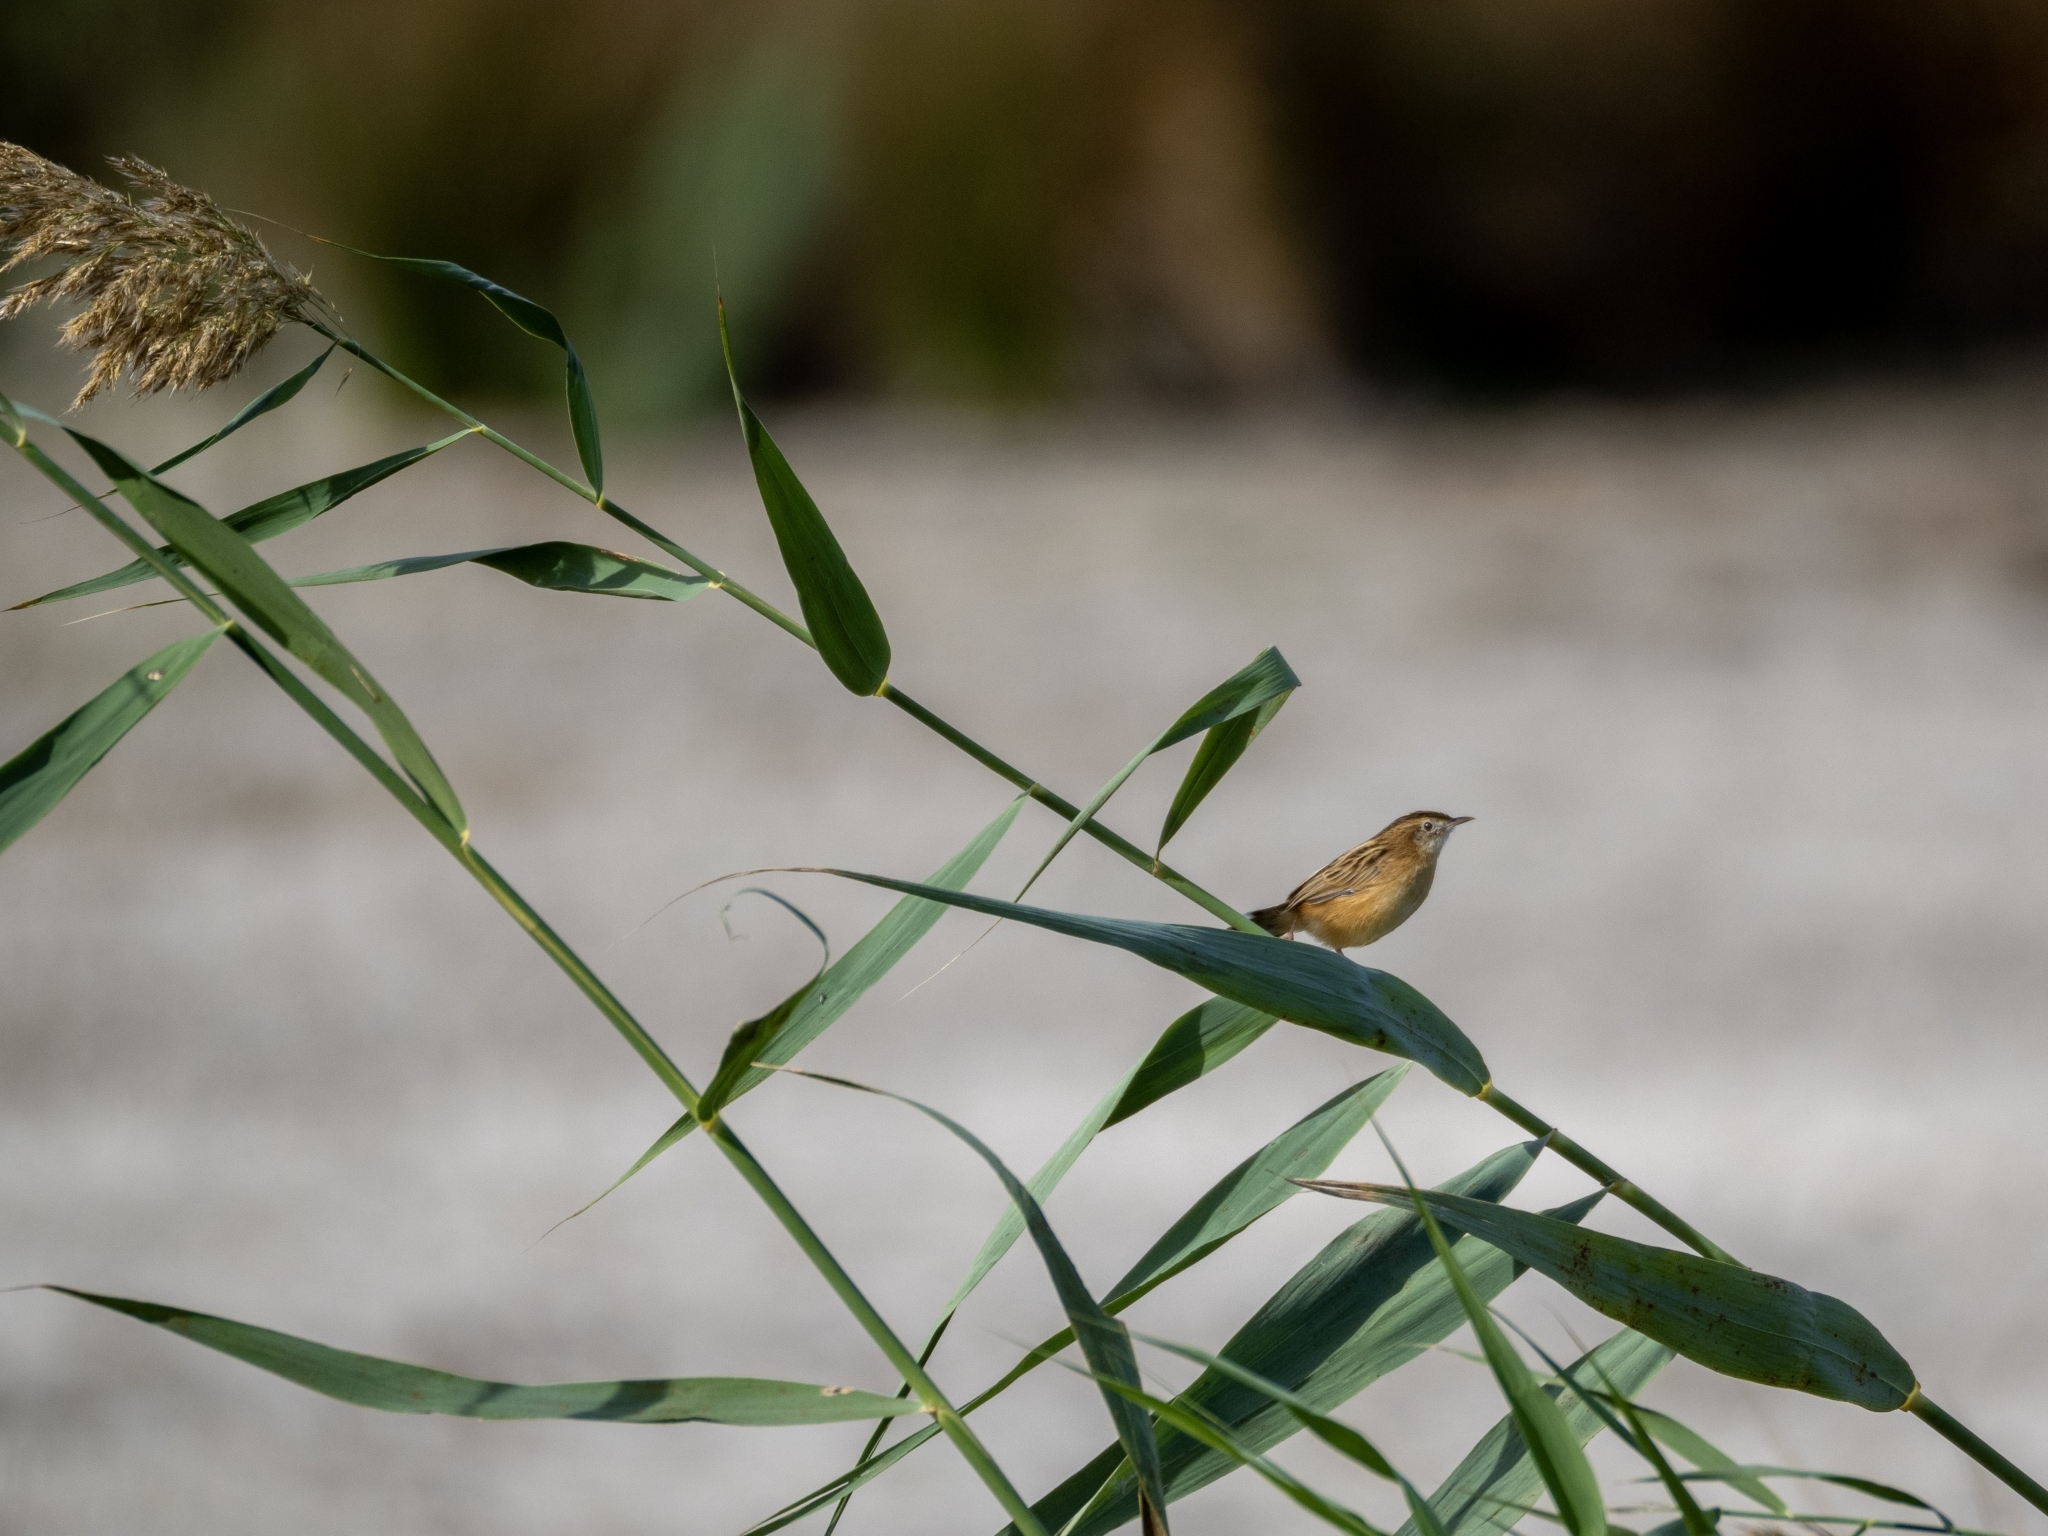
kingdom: Animalia
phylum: Chordata
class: Aves
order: Passeriformes
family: Cisticolidae
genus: Cisticola
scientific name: Cisticola juncidis
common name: Zitting cisticola
